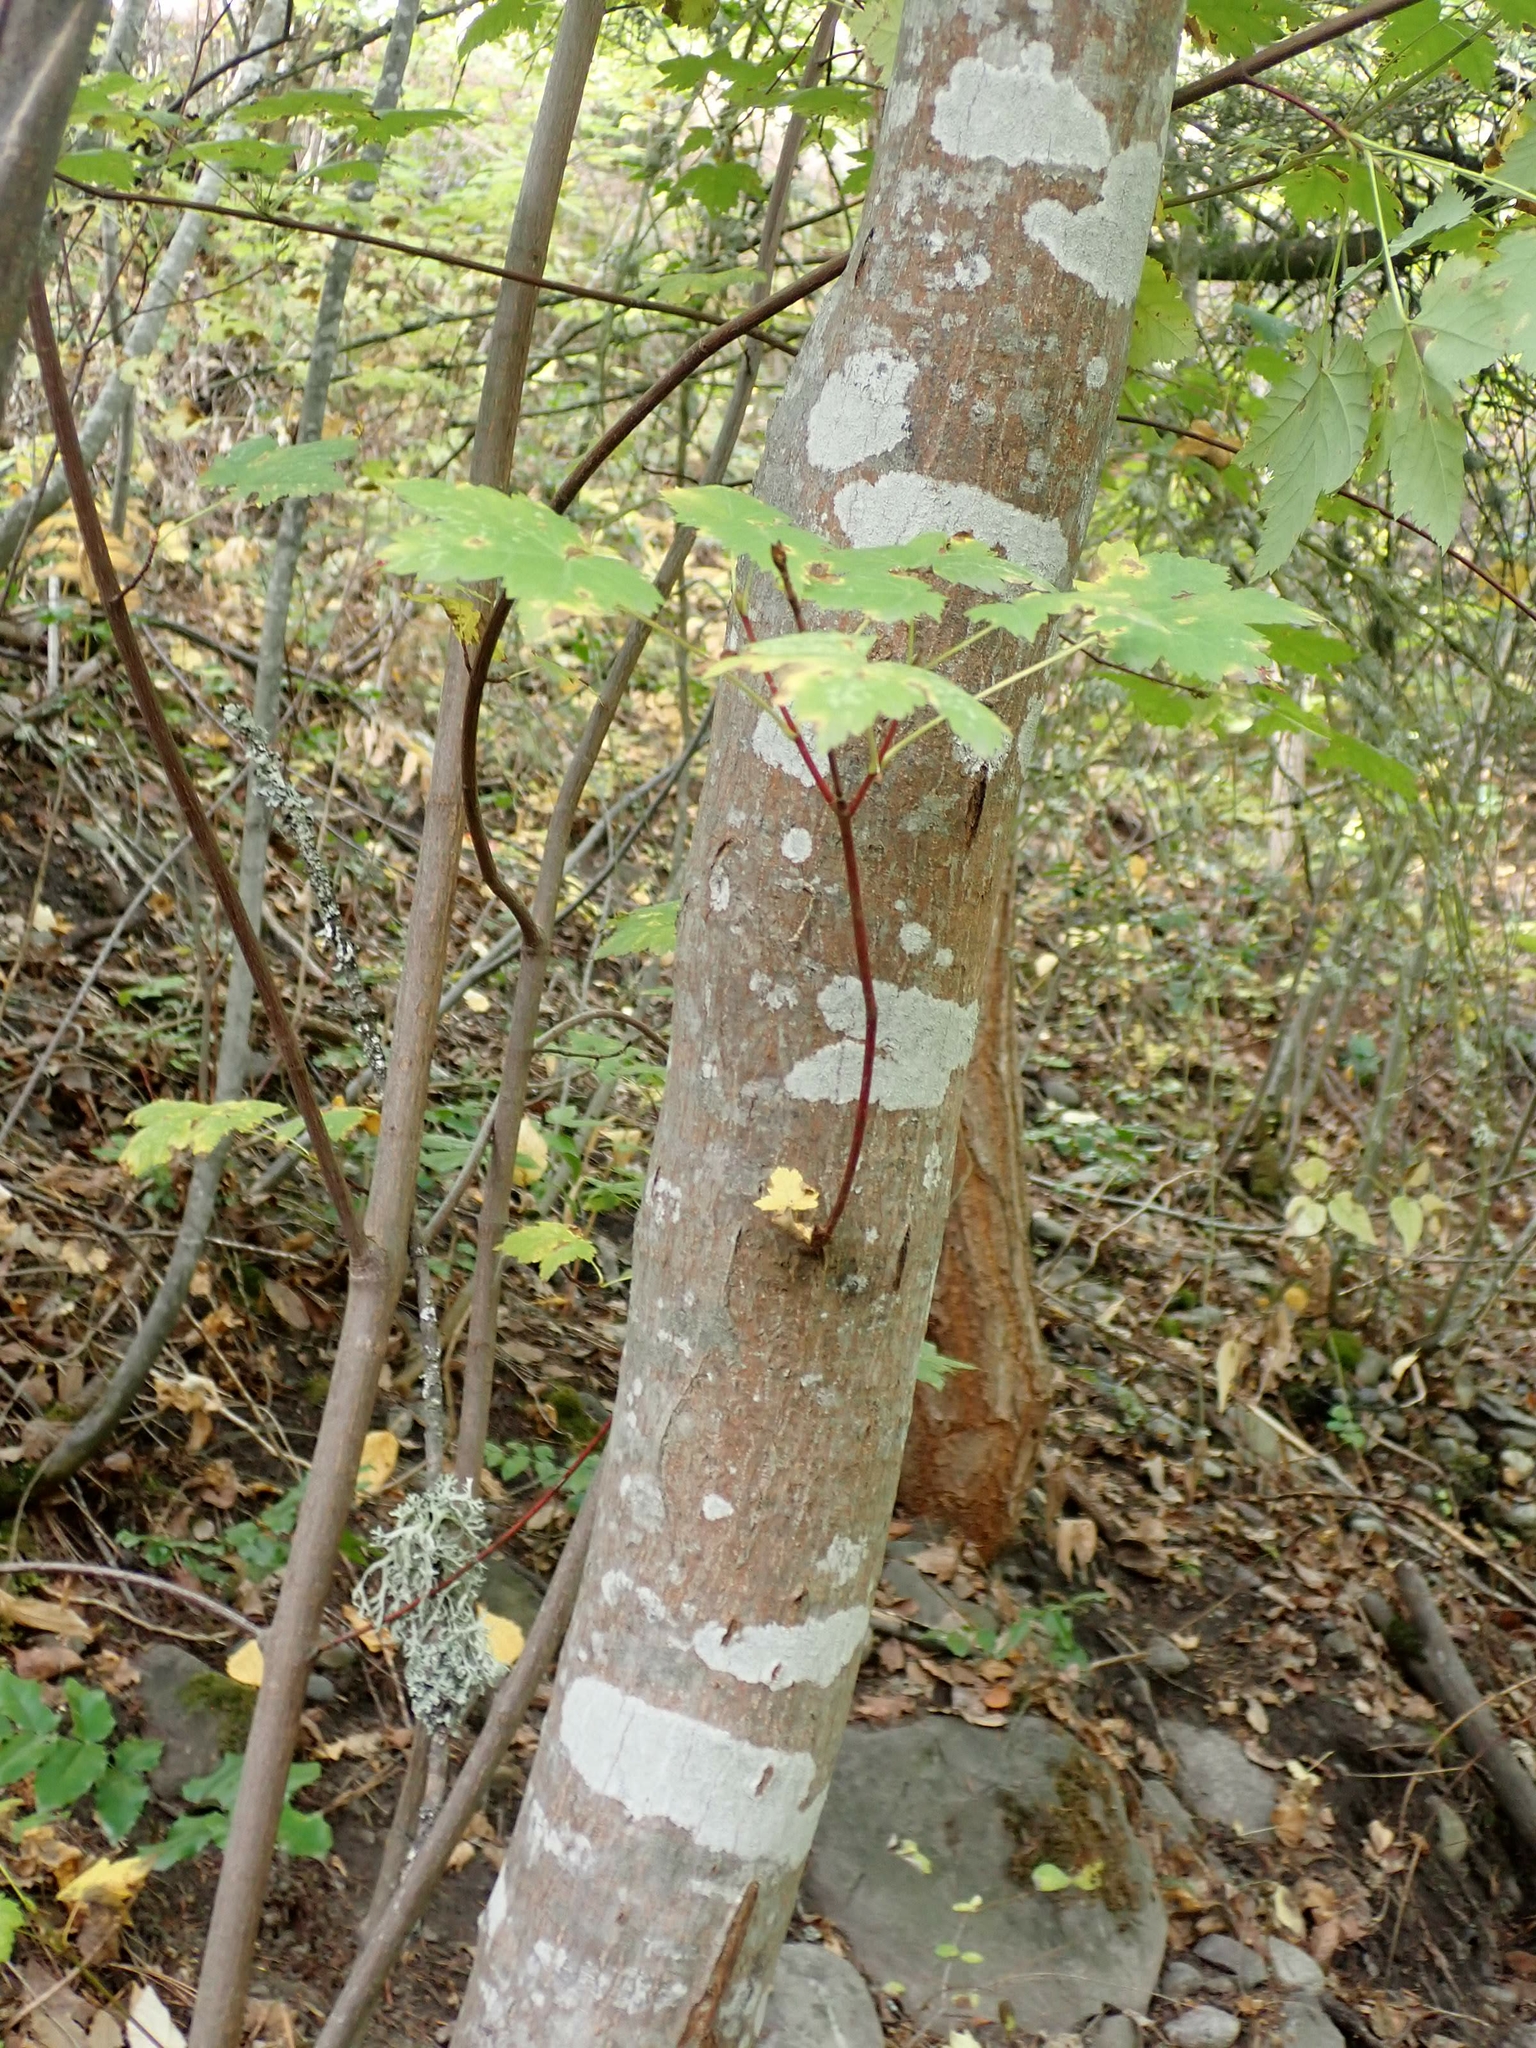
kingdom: Plantae
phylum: Tracheophyta
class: Magnoliopsida
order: Sapindales
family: Sapindaceae
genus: Acer
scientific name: Acer glabrum
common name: Rocky mountain maple
